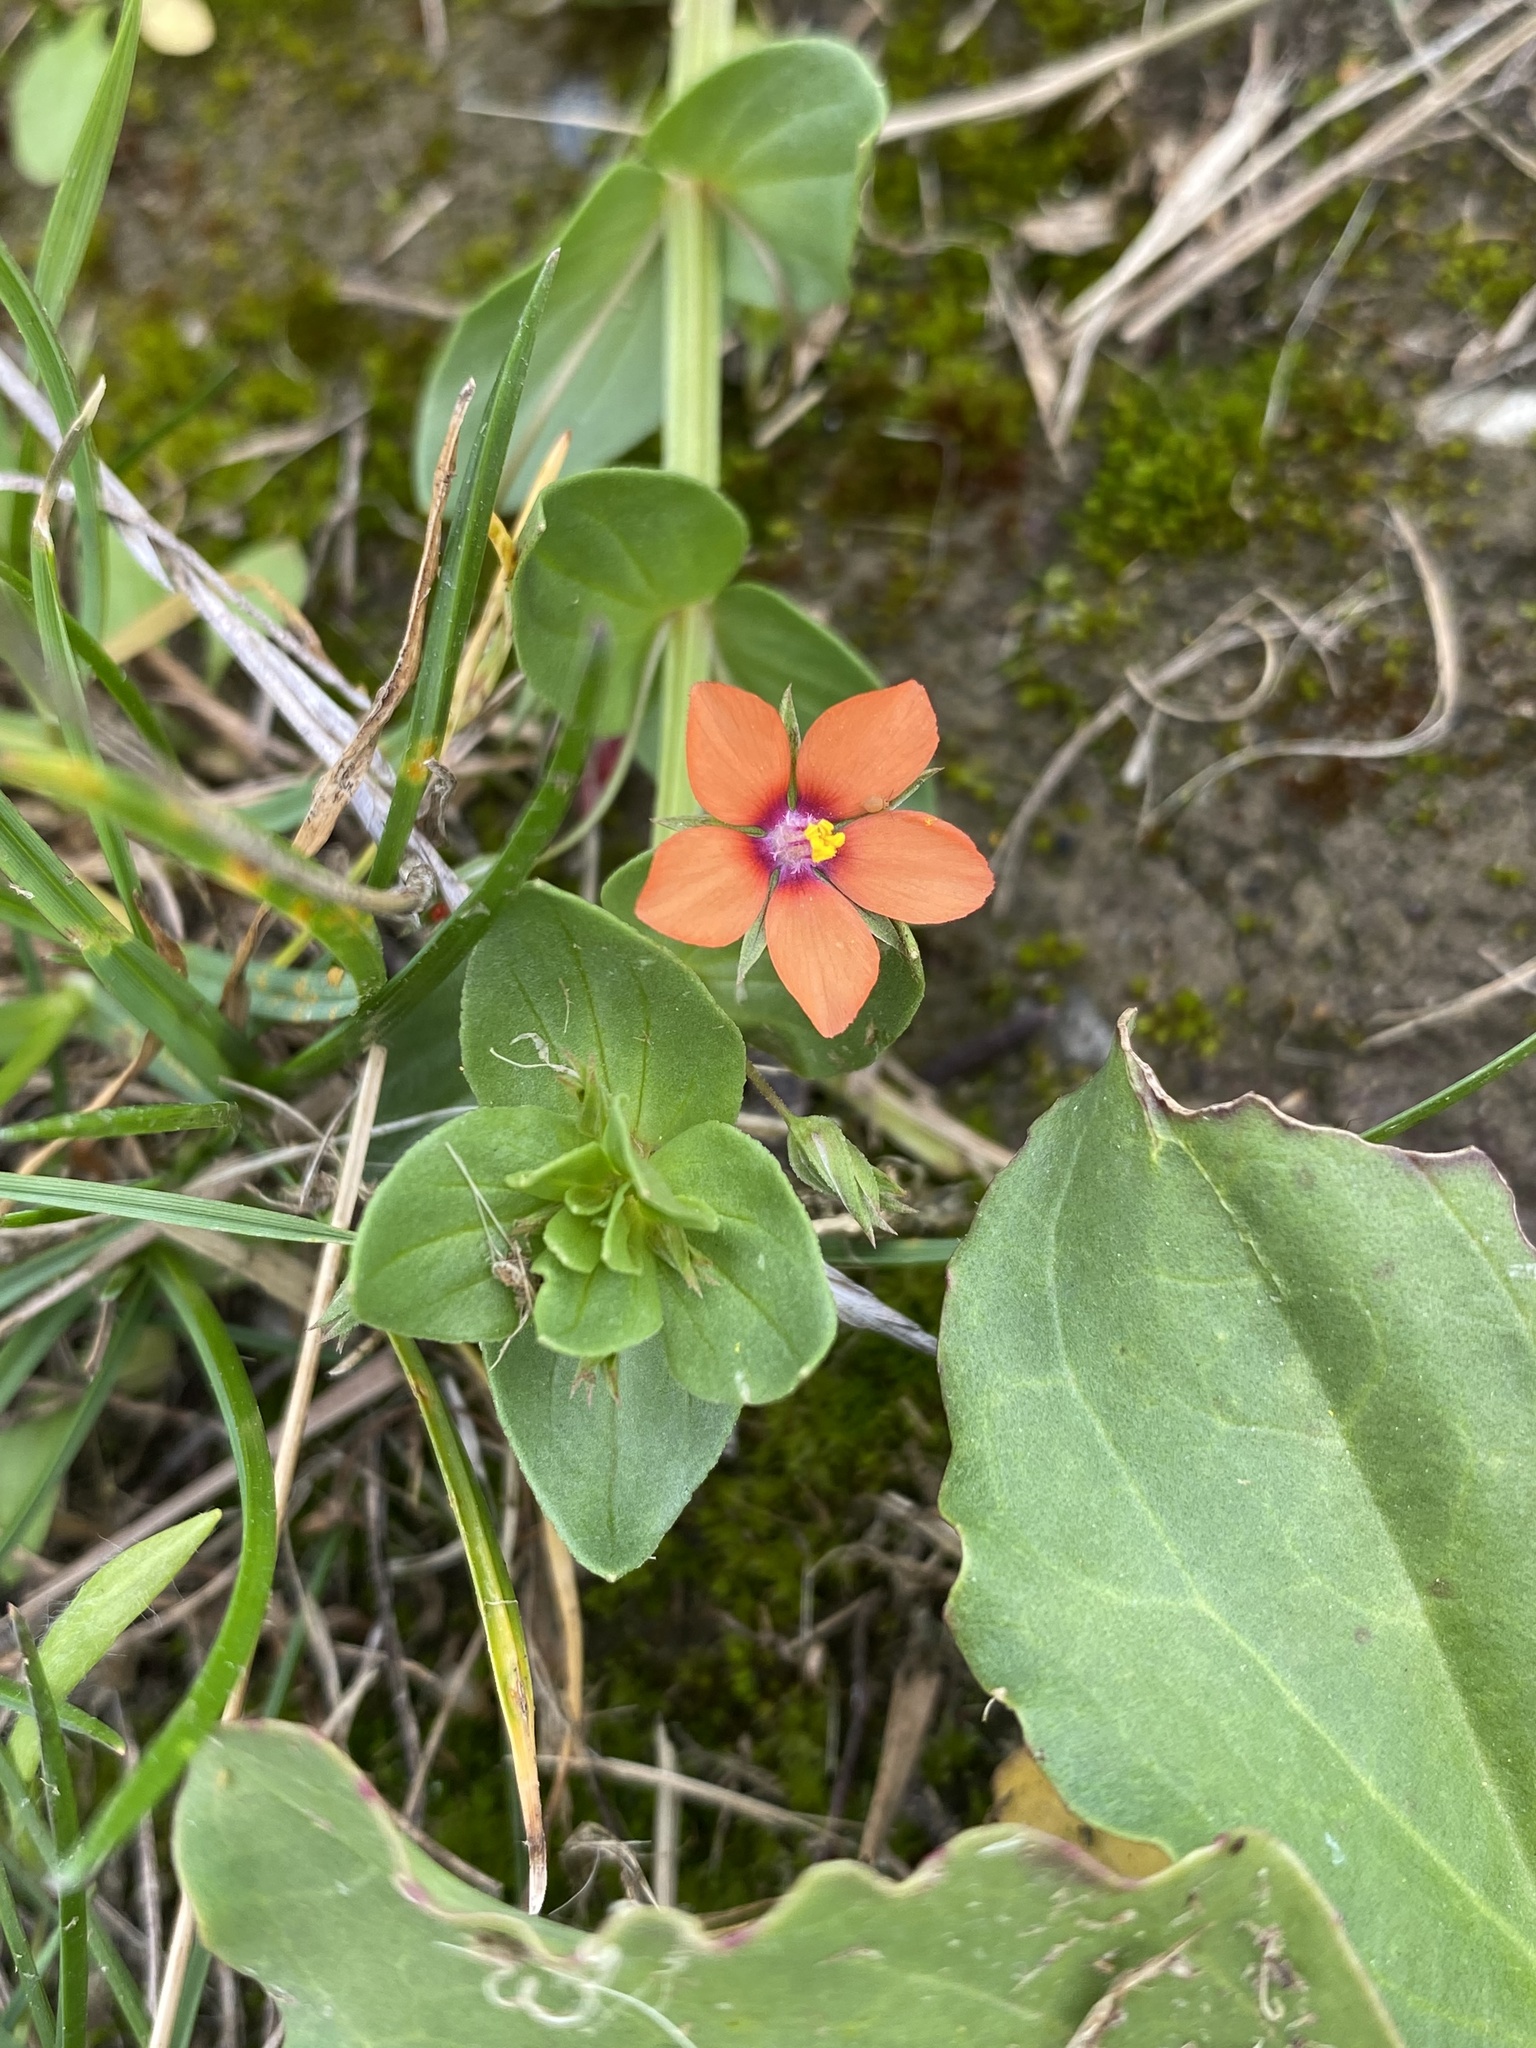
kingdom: Plantae
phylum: Tracheophyta
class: Magnoliopsida
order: Ericales
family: Primulaceae
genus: Lysimachia
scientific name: Lysimachia arvensis
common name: Scarlet pimpernel
